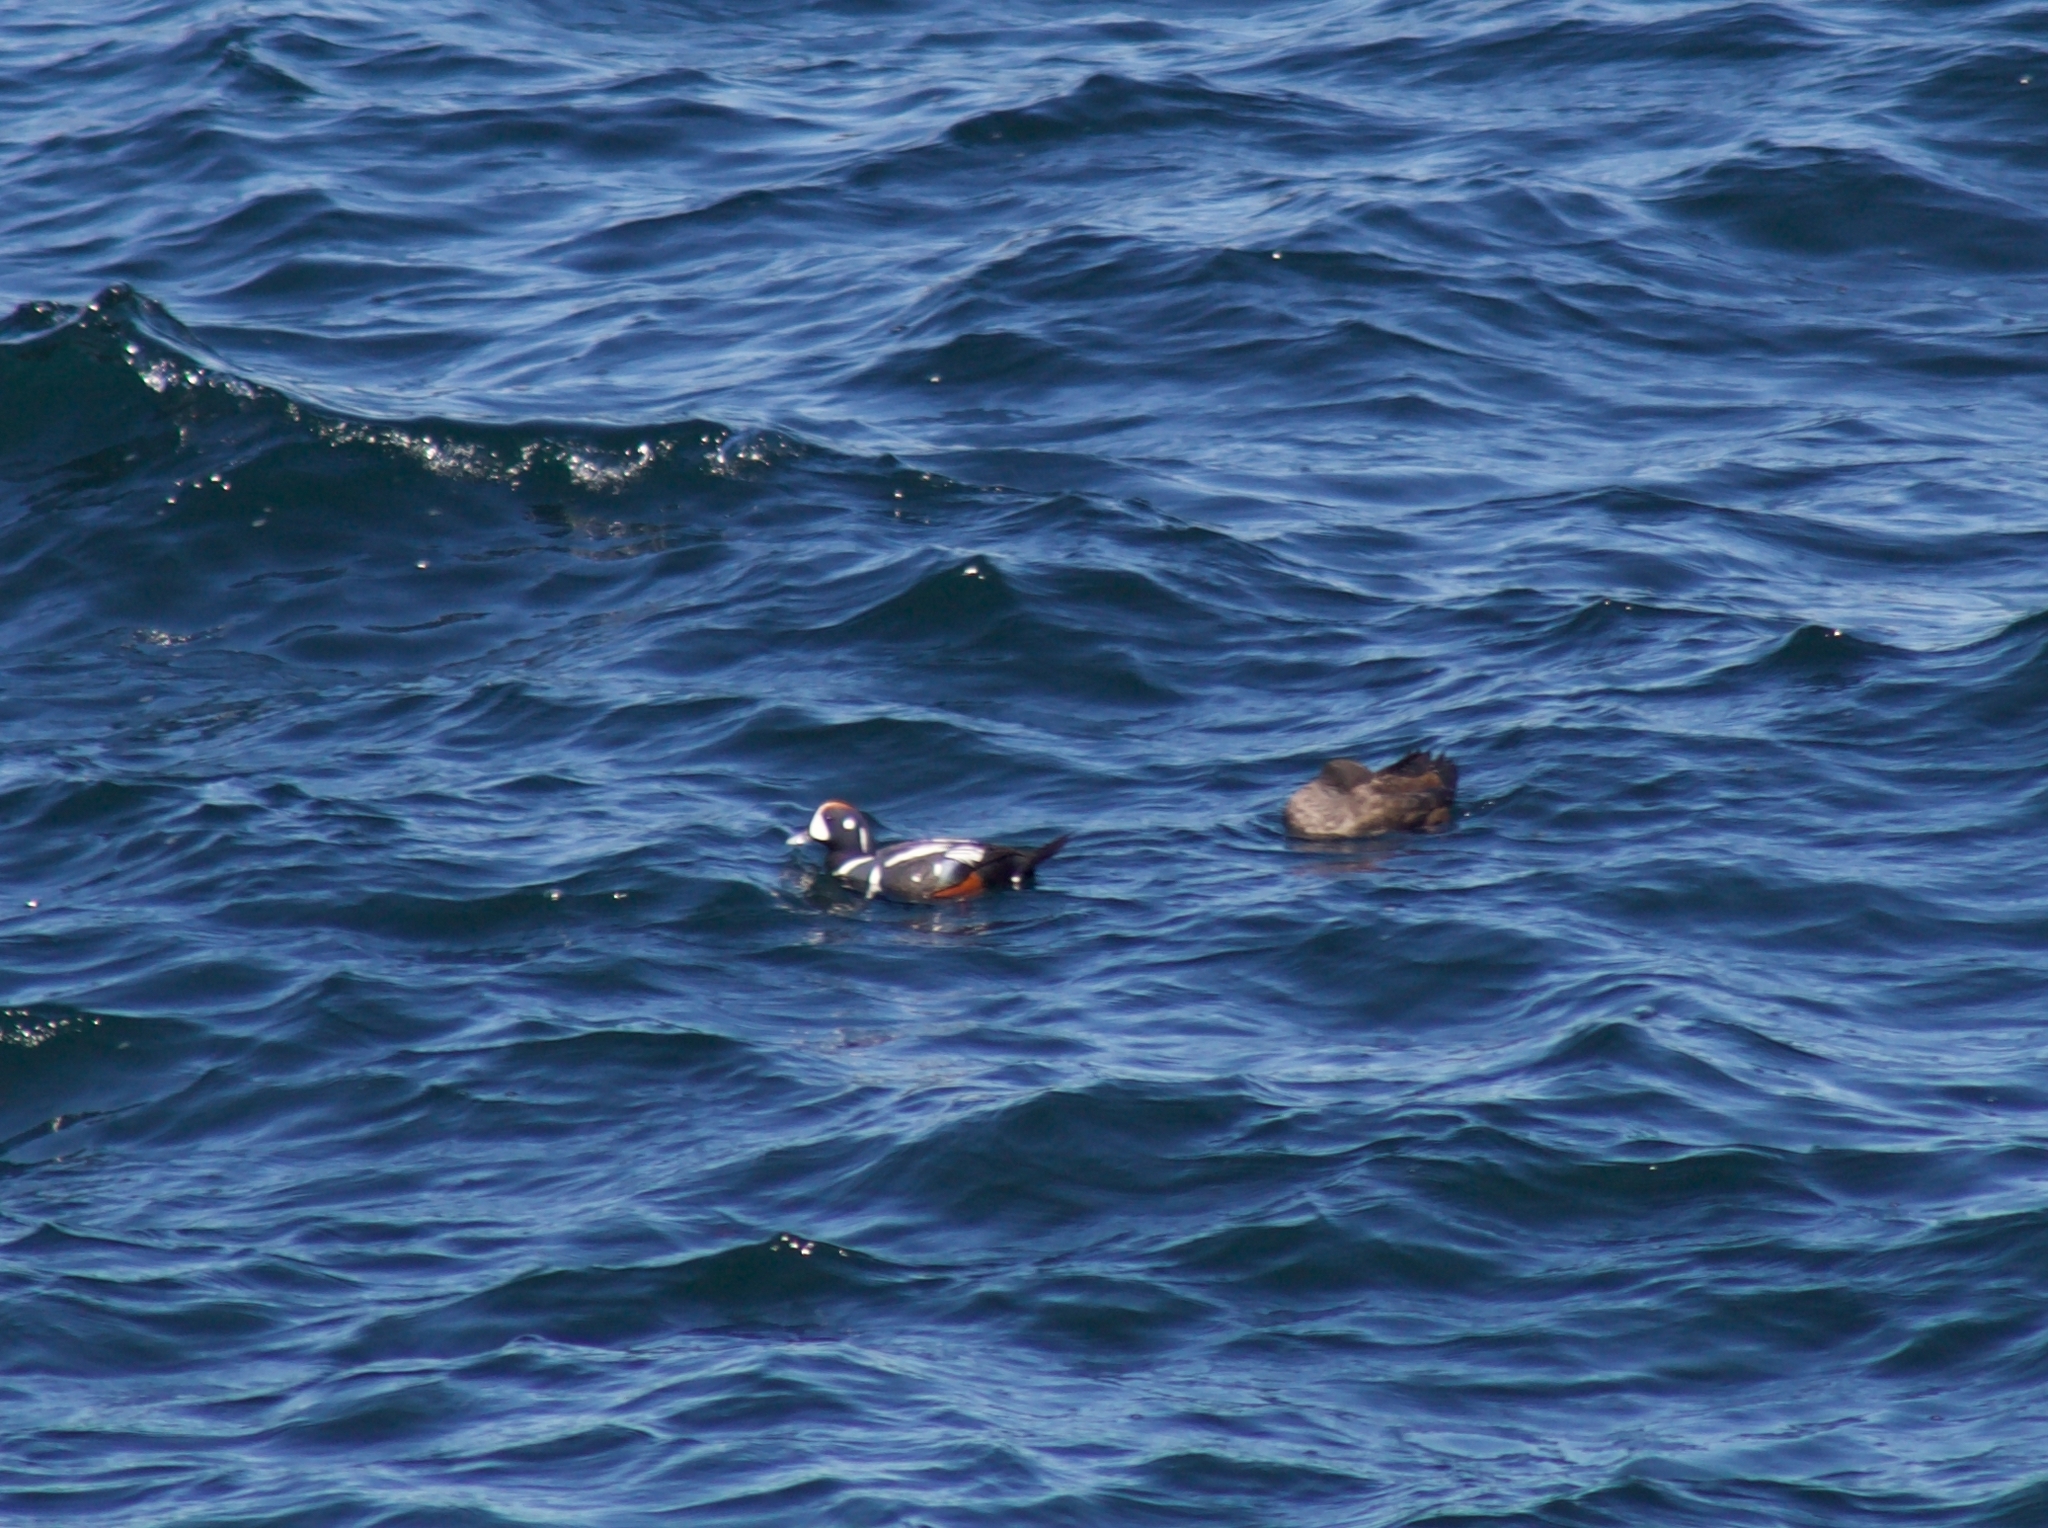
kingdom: Animalia
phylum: Chordata
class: Aves
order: Anseriformes
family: Anatidae
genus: Histrionicus
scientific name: Histrionicus histrionicus
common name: Harlequin duck
